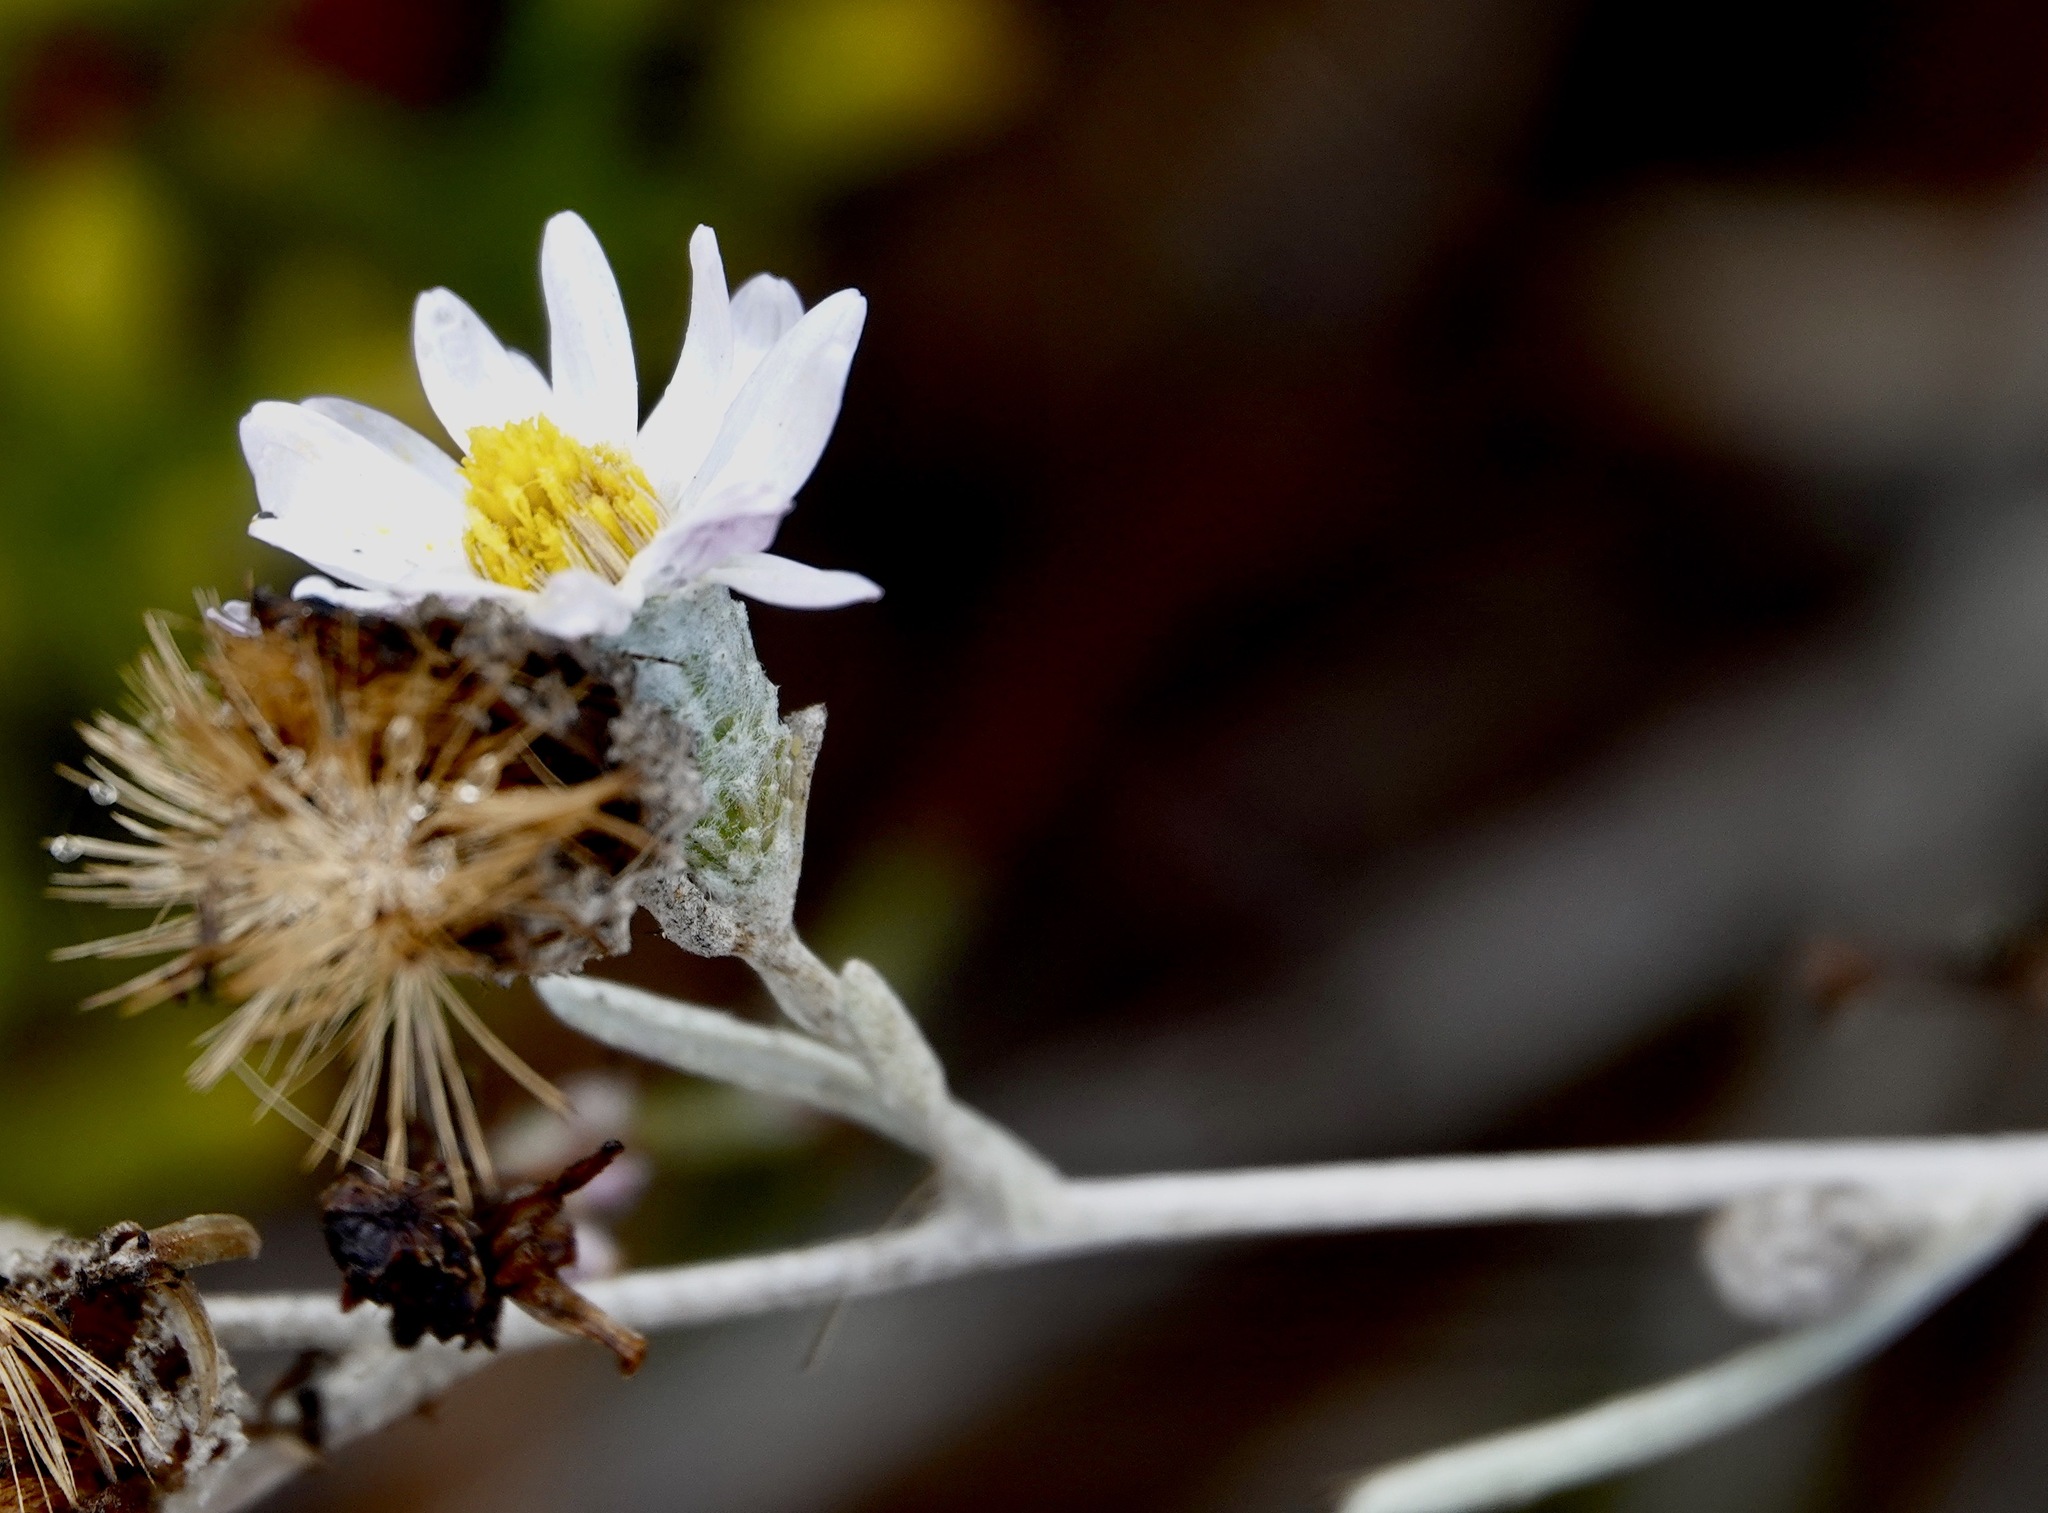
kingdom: Plantae
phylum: Tracheophyta
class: Magnoliopsida
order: Asterales
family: Asteraceae
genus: Corethrogyne
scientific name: Corethrogyne filaginifolia
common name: Sand-aster
